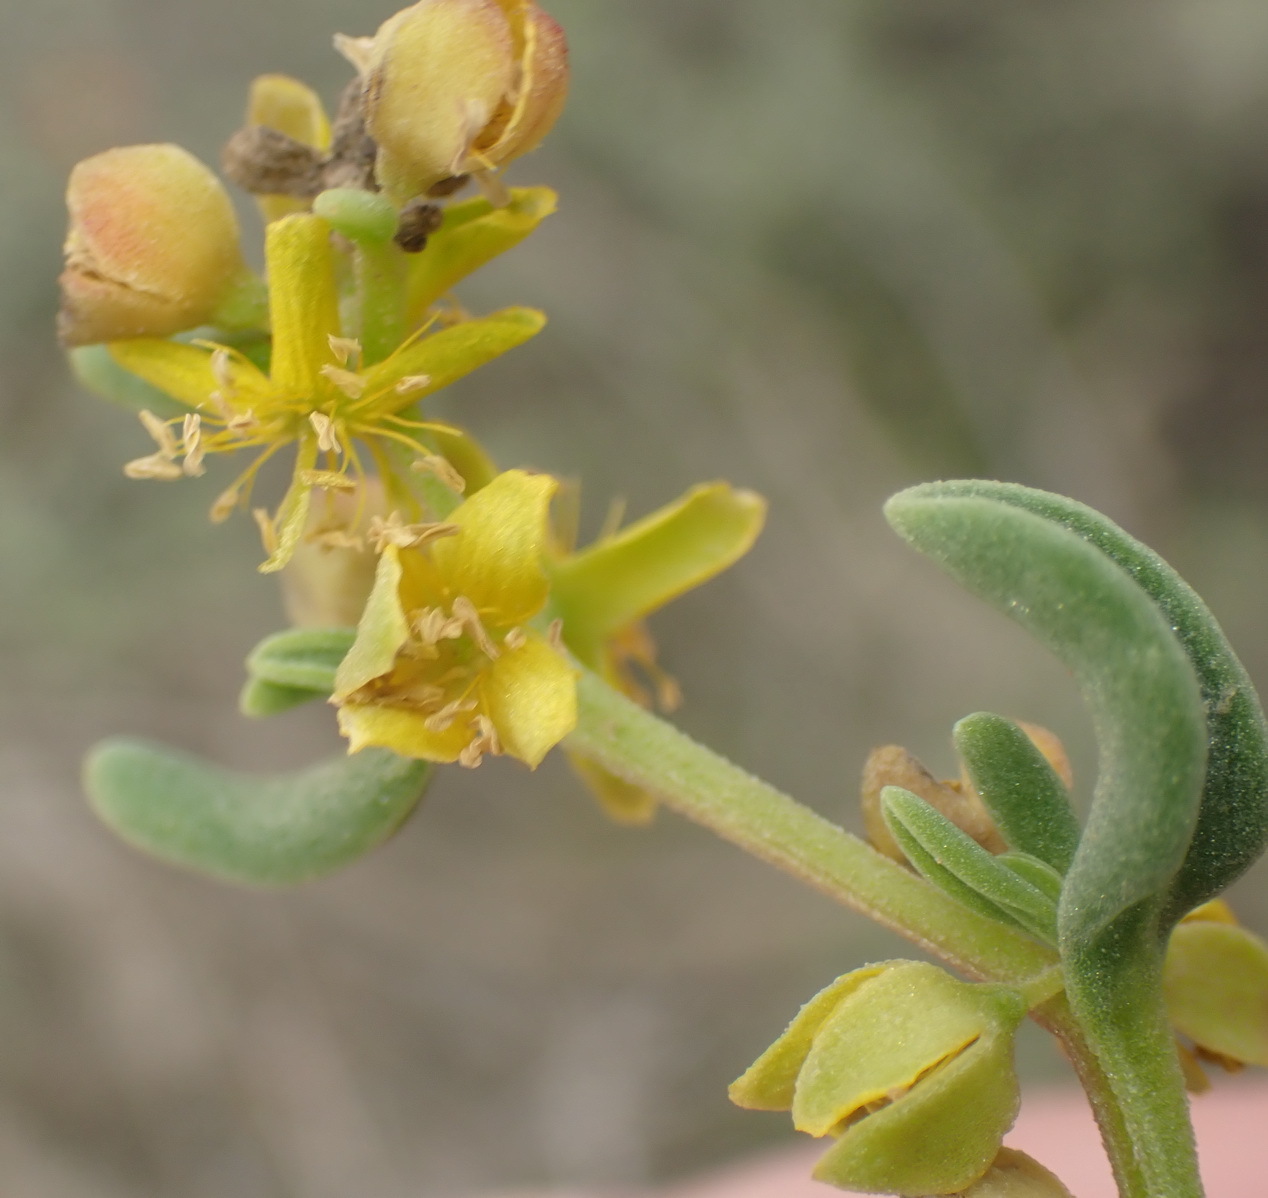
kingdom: Plantae
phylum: Tracheophyta
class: Magnoliopsida
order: Caryophyllales
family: Aizoaceae
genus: Tetragonia
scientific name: Tetragonia sarcophylla
